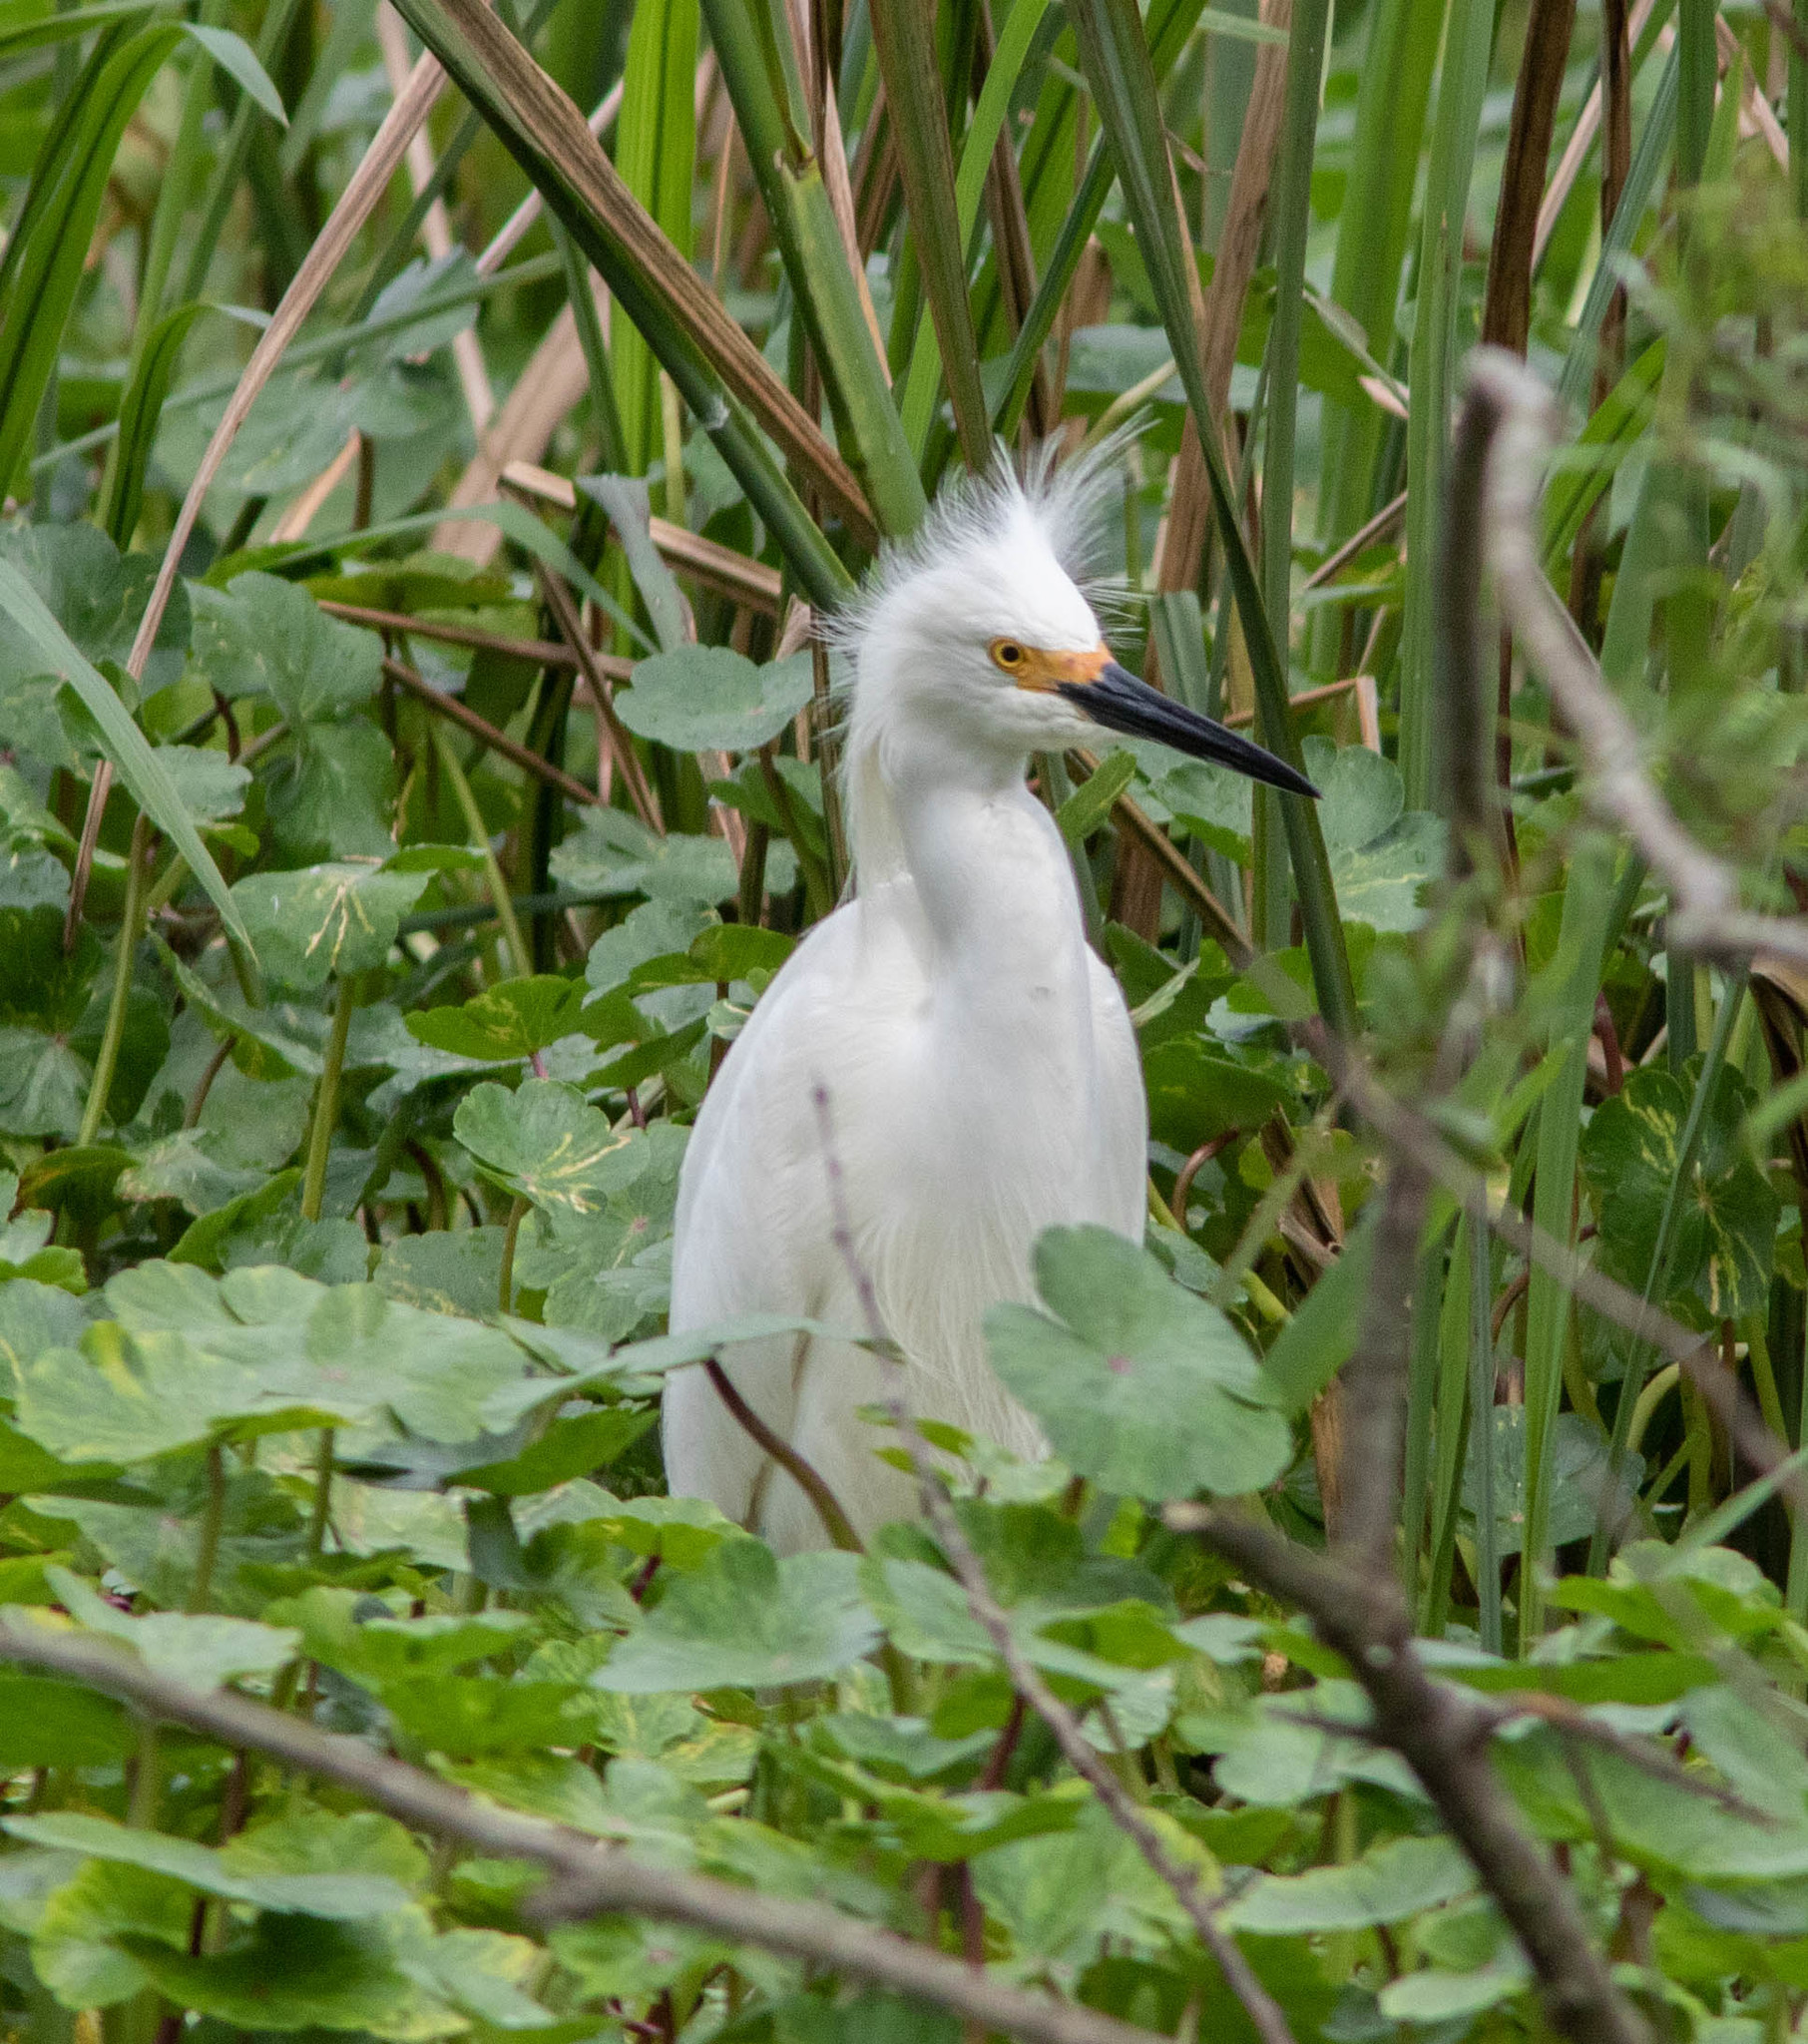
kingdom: Animalia
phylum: Chordata
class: Aves
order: Pelecaniformes
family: Ardeidae
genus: Egretta
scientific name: Egretta thula
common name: Snowy egret
